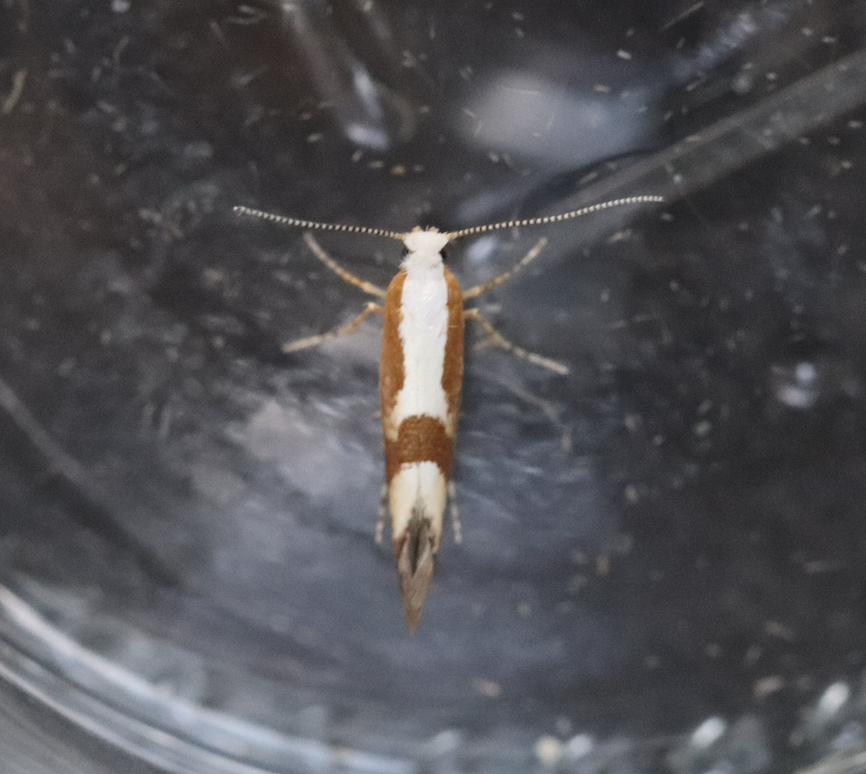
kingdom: Animalia
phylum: Arthropoda
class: Insecta
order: Lepidoptera
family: Argyresthiidae
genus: Argyresthia
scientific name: Argyresthia pruniella
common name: Cherry fruit moth
